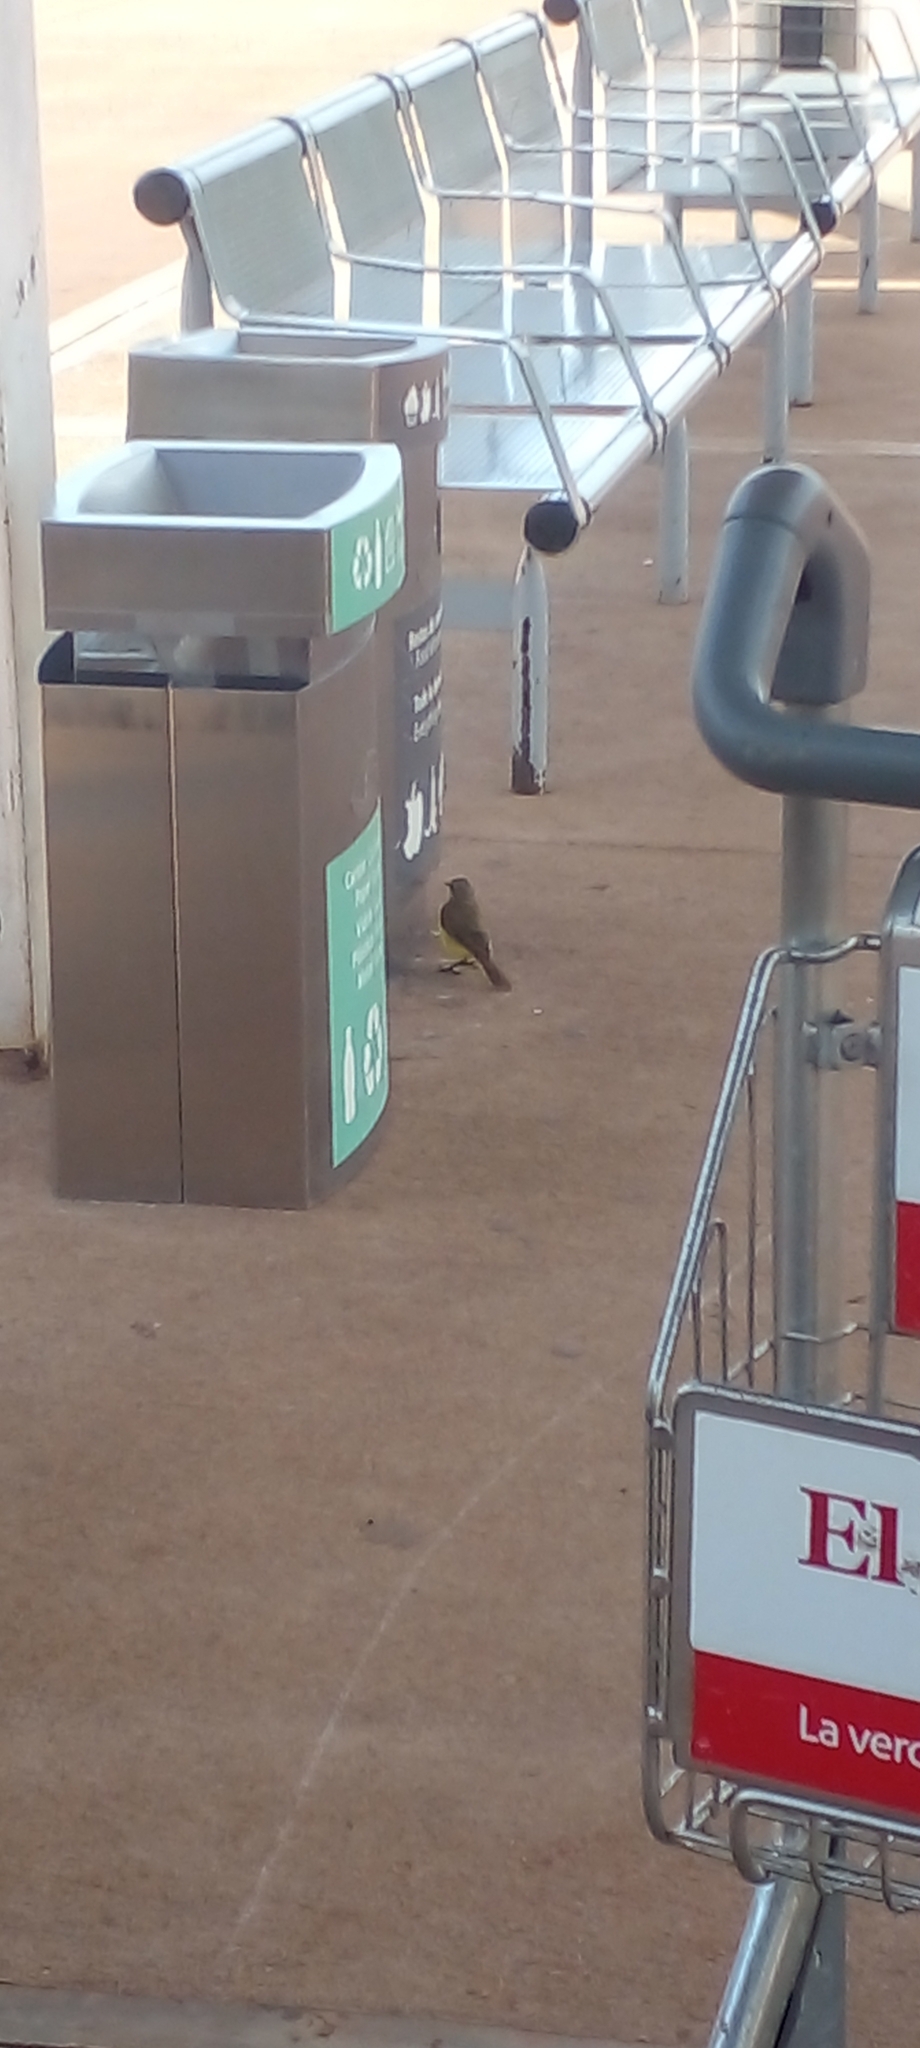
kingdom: Animalia
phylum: Chordata
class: Aves
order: Passeriformes
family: Tyrannidae
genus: Machetornis
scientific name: Machetornis rixosa
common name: Cattle tyrant
